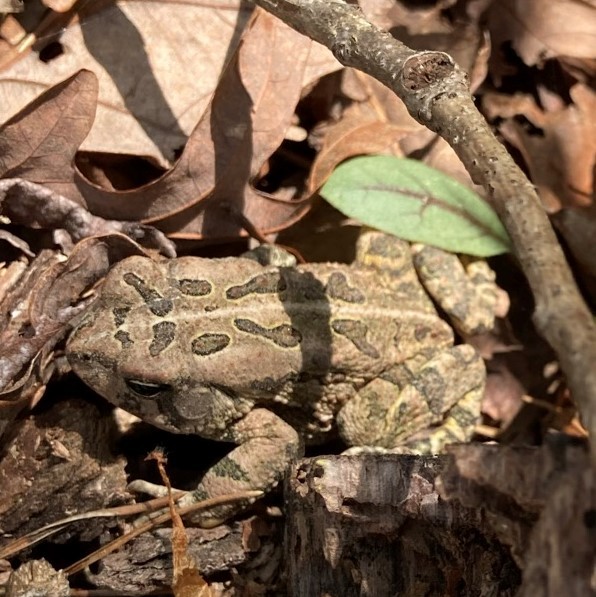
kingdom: Animalia
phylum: Chordata
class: Amphibia
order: Anura
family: Bufonidae
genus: Anaxyrus
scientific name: Anaxyrus fowleri
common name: Fowler's toad
